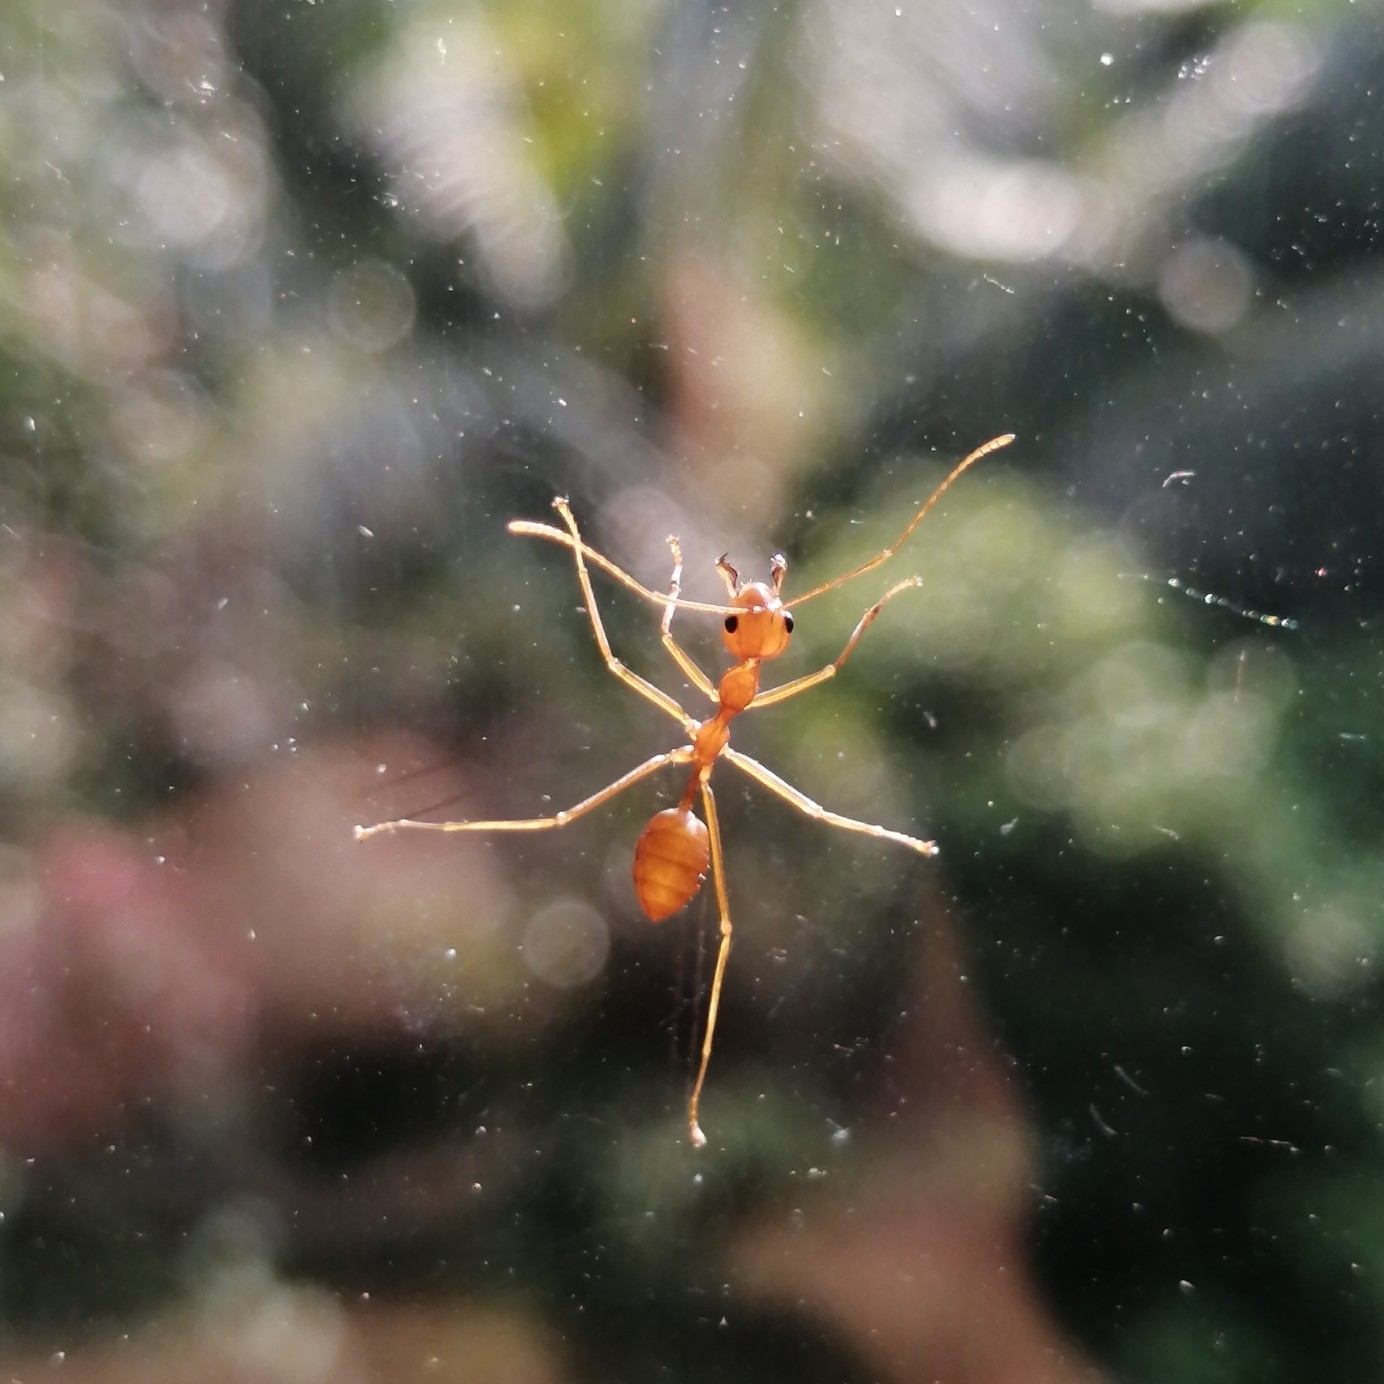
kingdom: Animalia
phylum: Arthropoda
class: Insecta
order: Hymenoptera
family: Formicidae
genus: Oecophylla
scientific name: Oecophylla smaragdina
